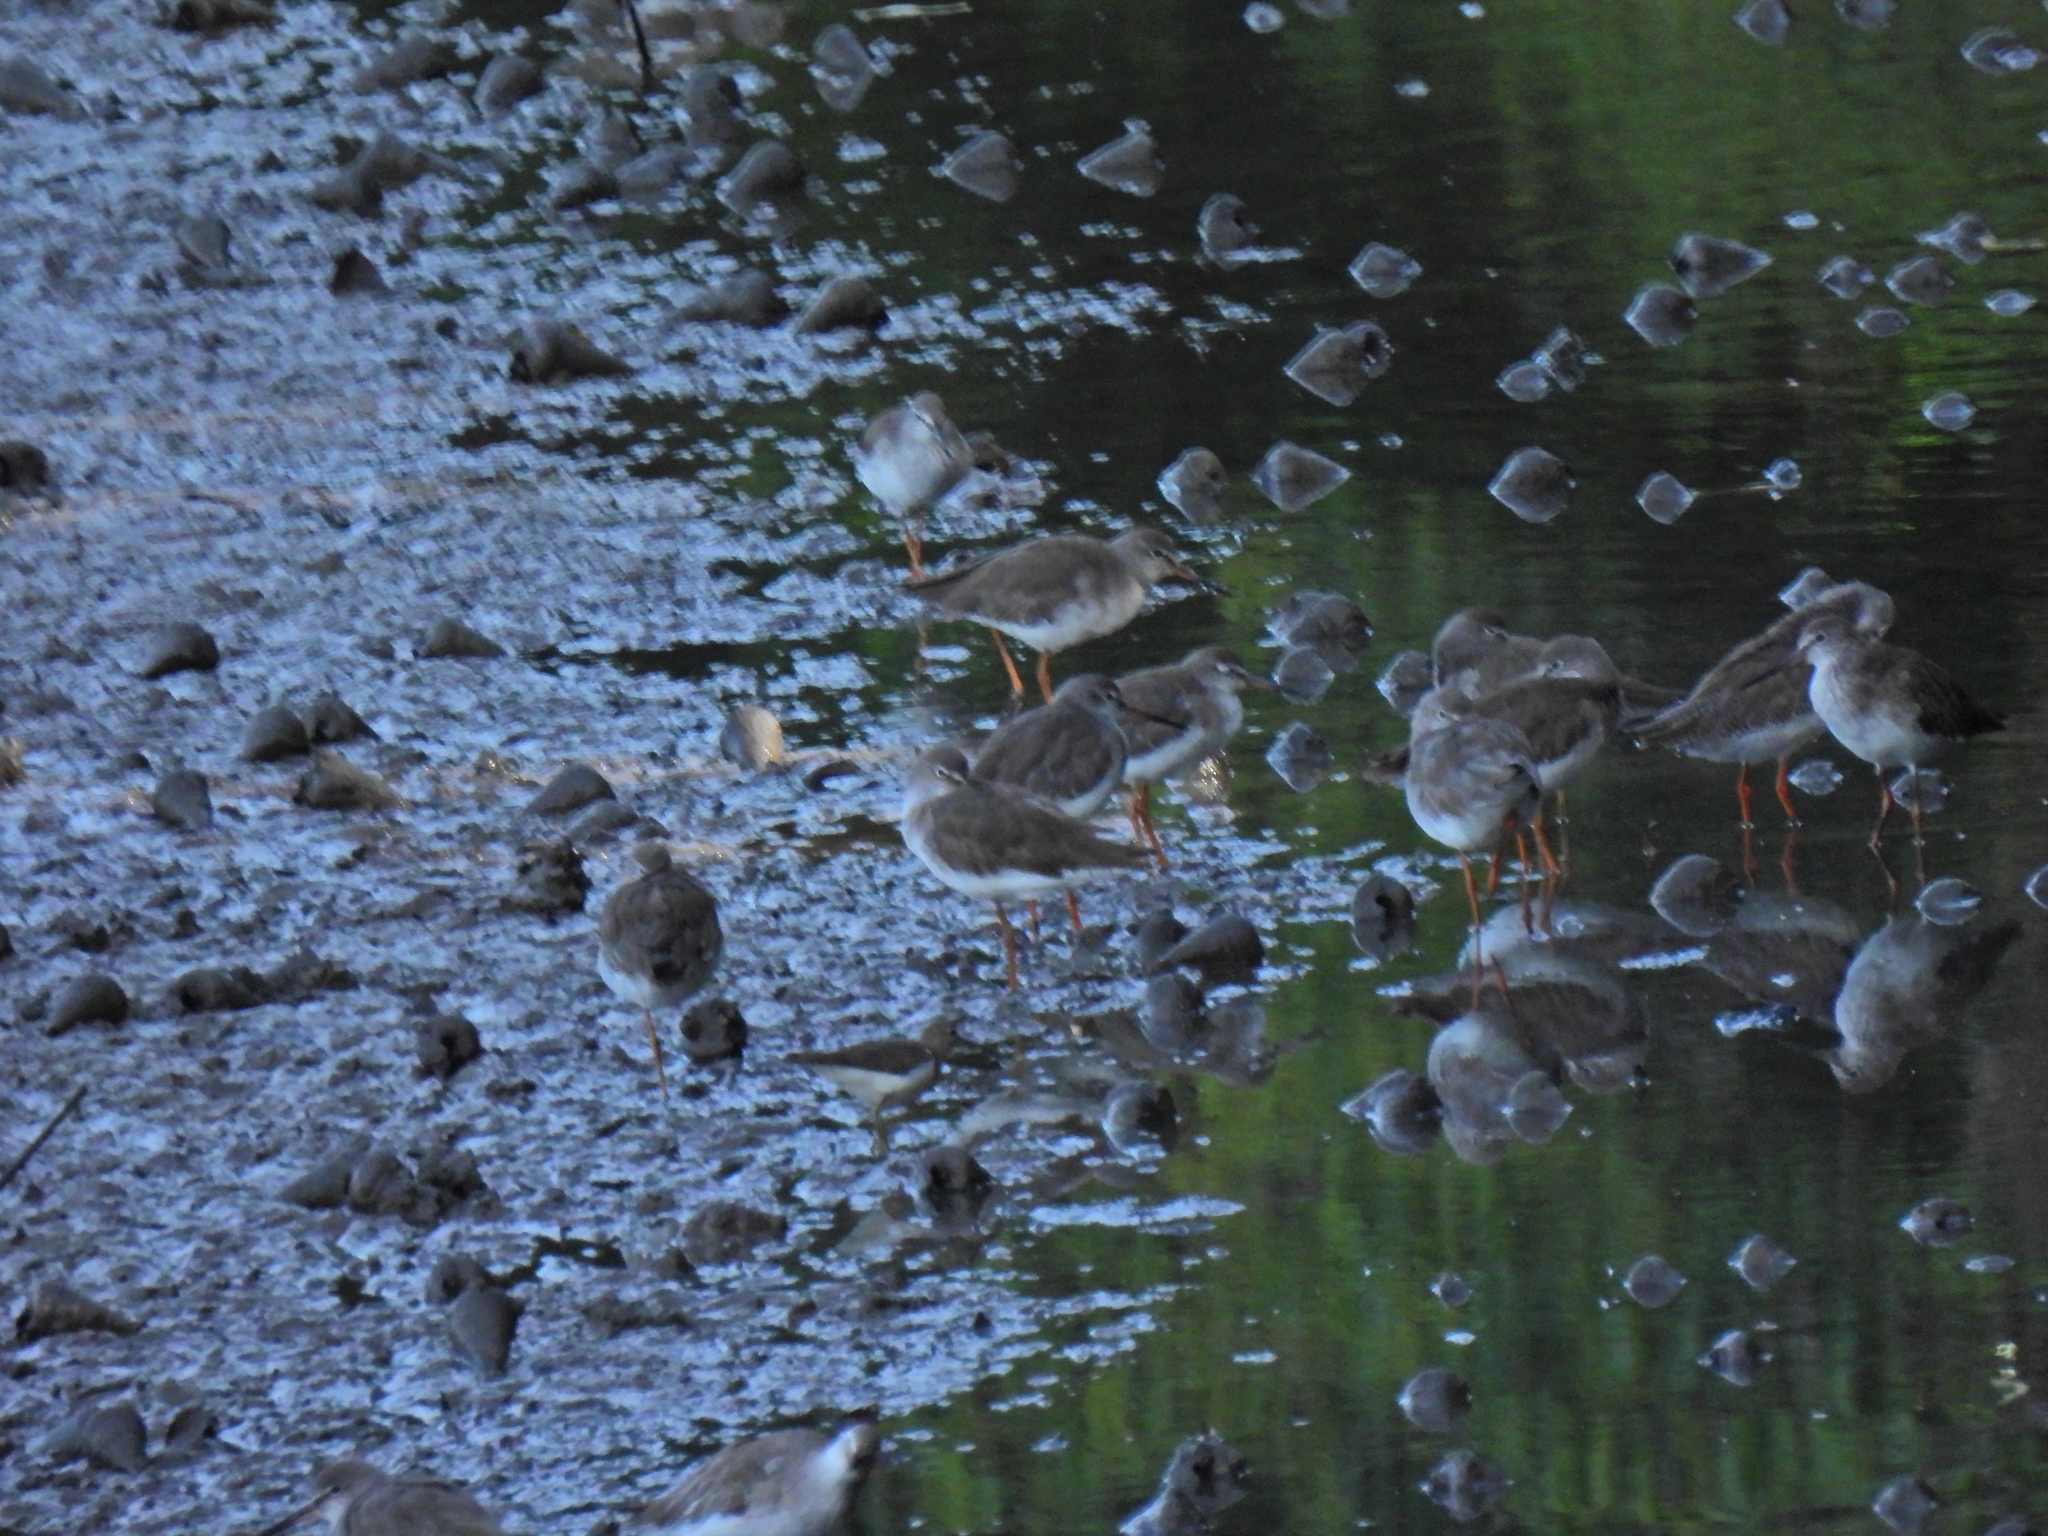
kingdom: Animalia
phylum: Chordata
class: Aves
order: Charadriiformes
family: Scolopacidae
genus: Tringa
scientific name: Tringa totanus
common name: Common redshank
